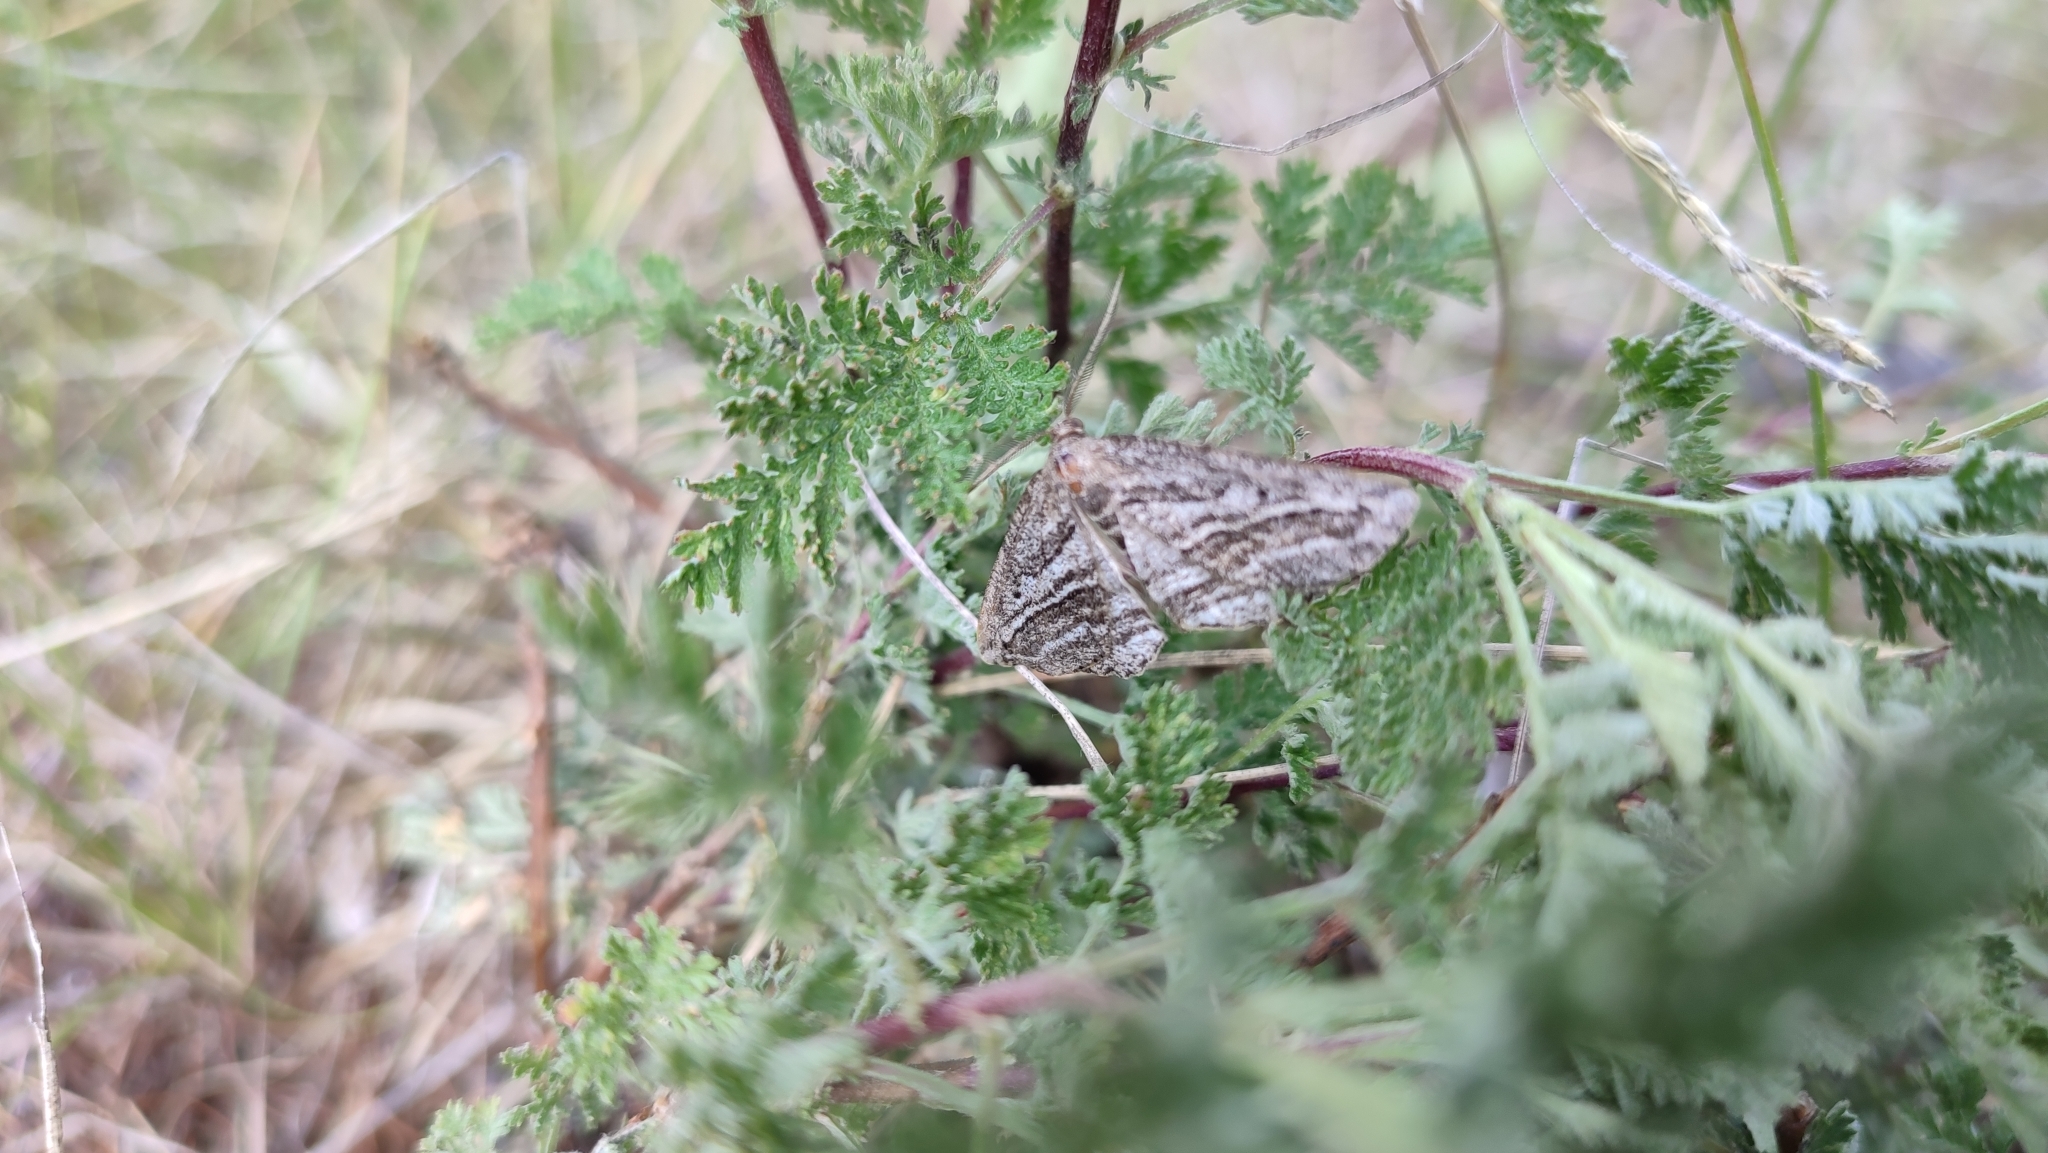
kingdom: Animalia
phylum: Arthropoda
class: Insecta
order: Lepidoptera
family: Geometridae
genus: Phthonandria
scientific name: Phthonandria
